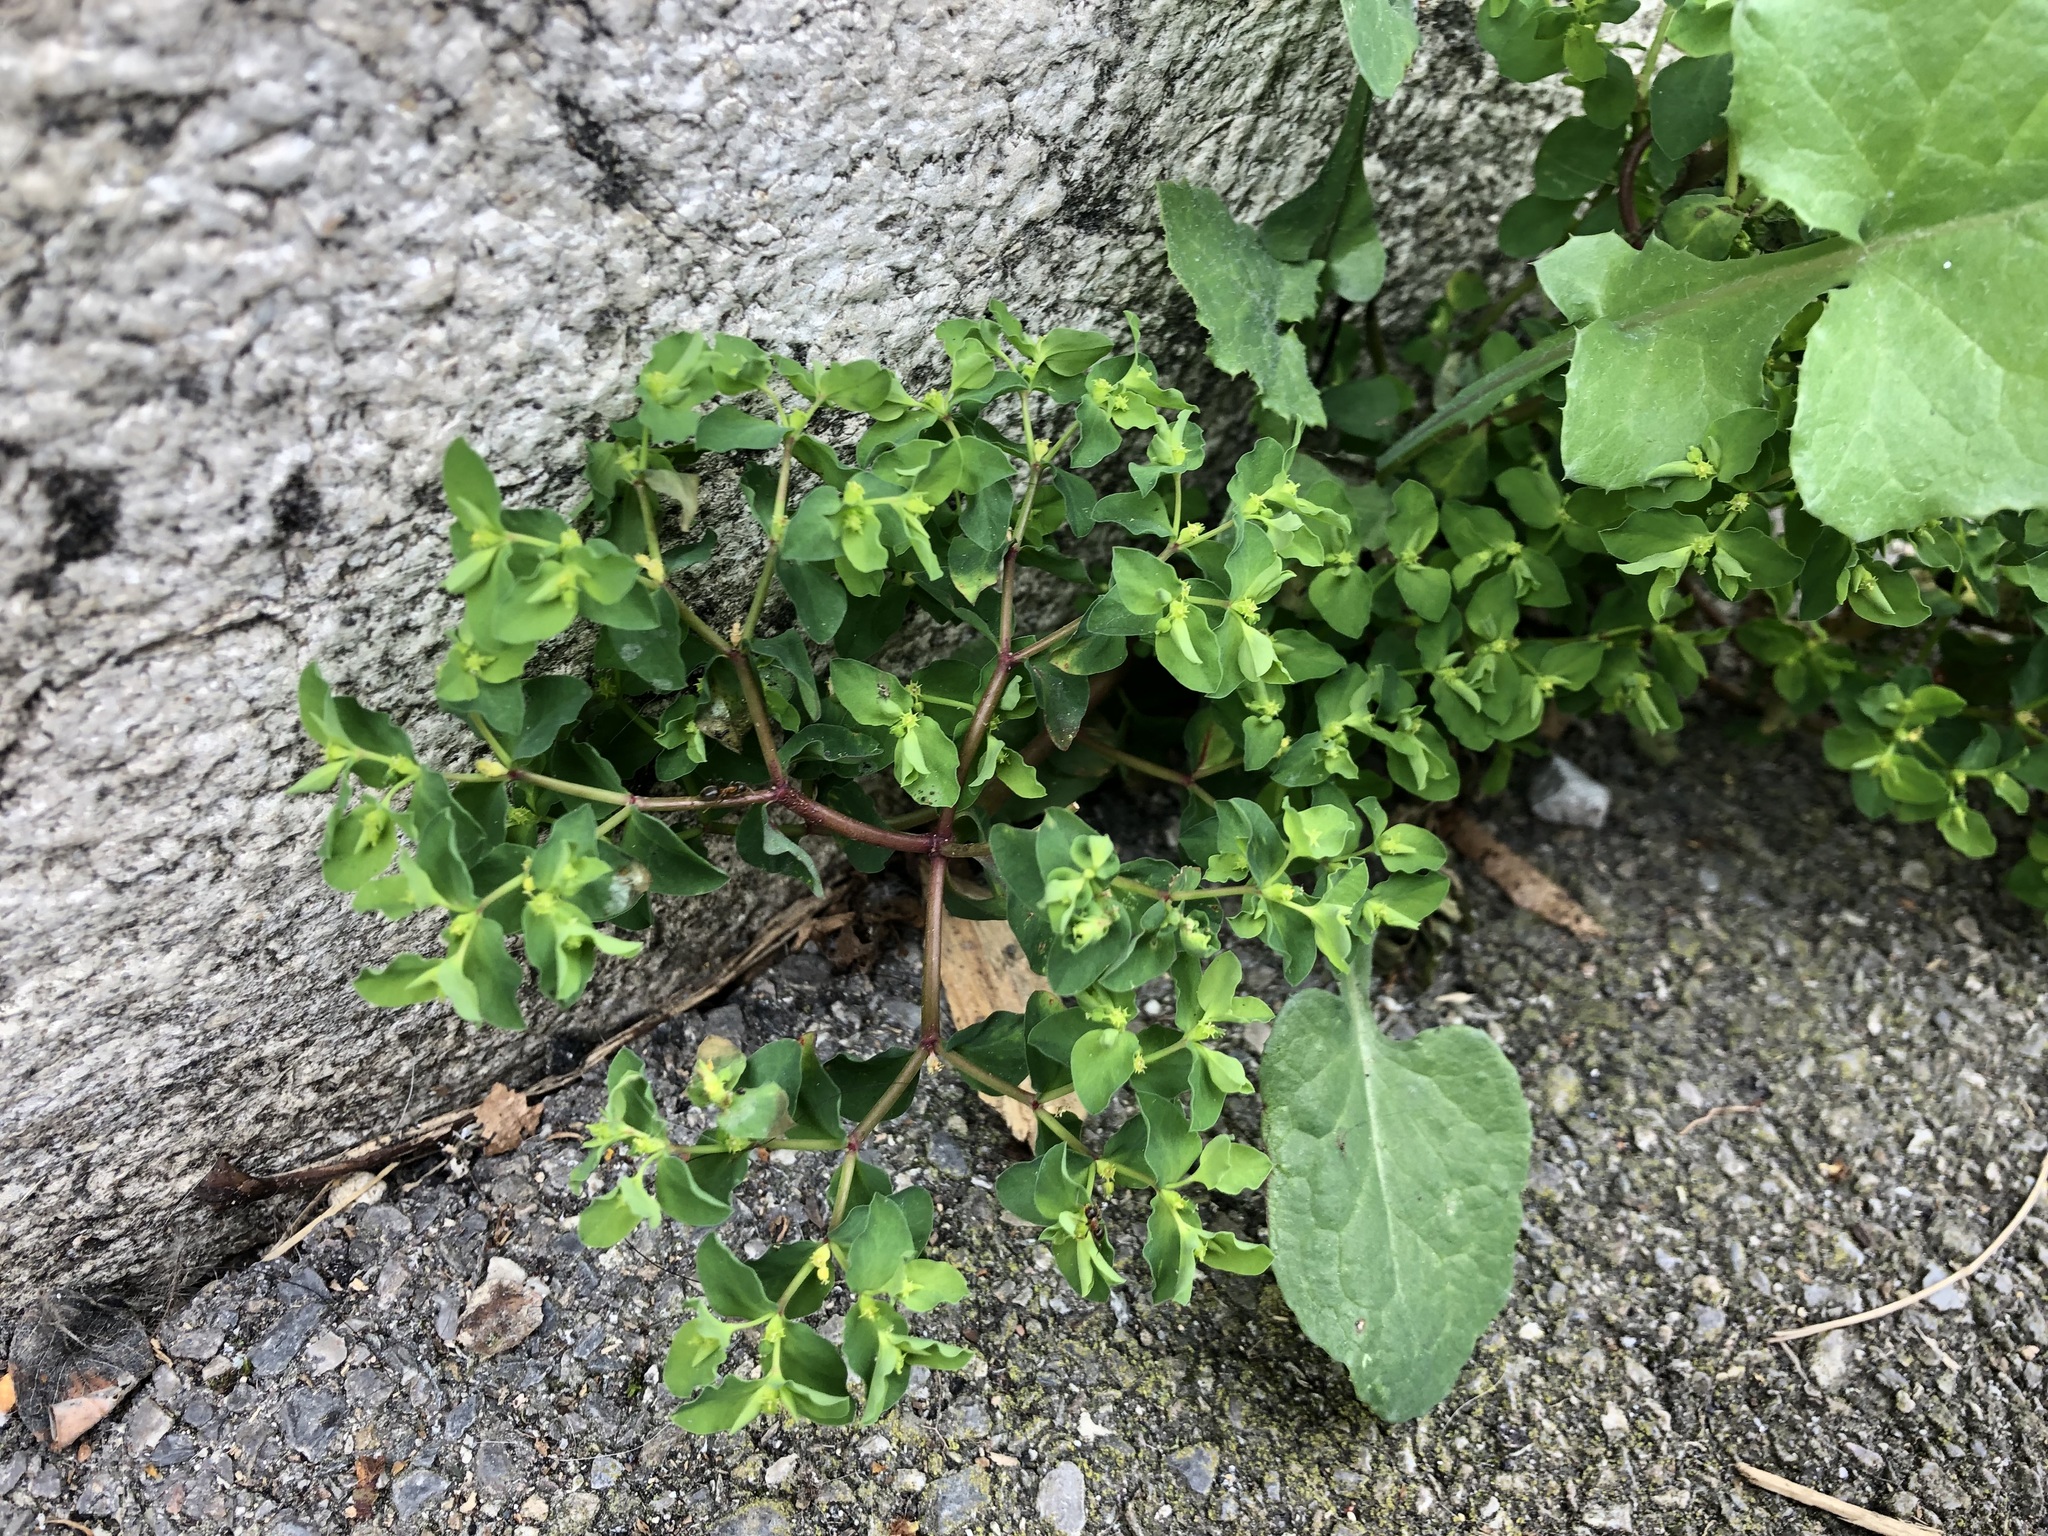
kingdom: Plantae
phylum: Tracheophyta
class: Magnoliopsida
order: Malpighiales
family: Euphorbiaceae
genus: Euphorbia
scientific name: Euphorbia peplus
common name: Petty spurge
